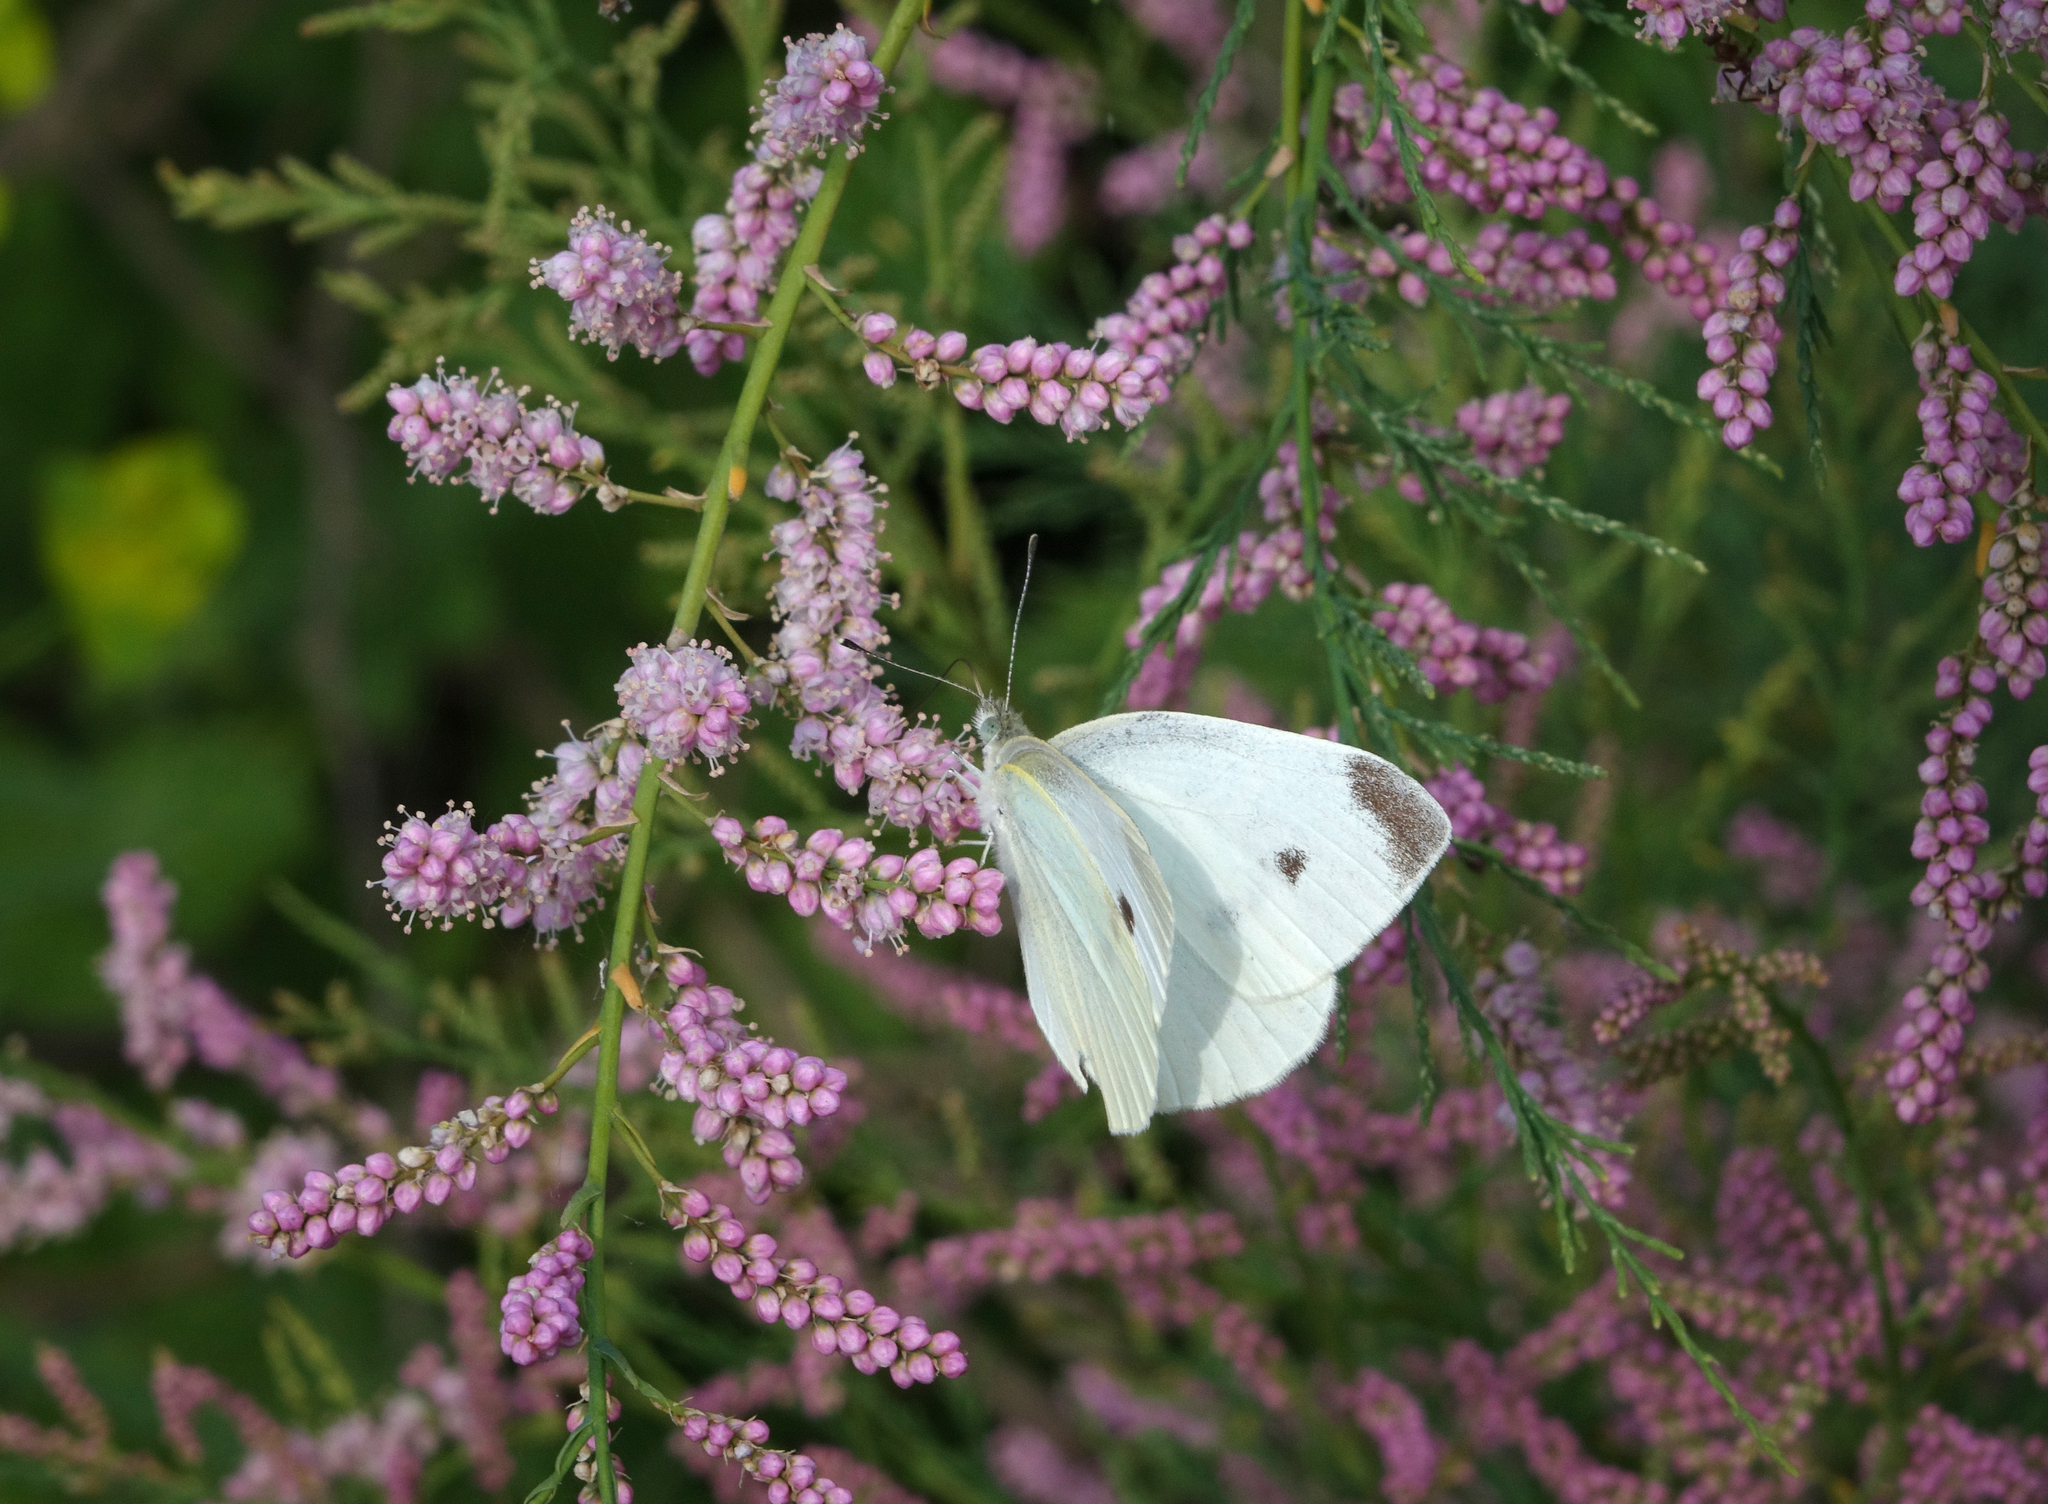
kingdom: Animalia
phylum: Arthropoda
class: Insecta
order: Lepidoptera
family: Pieridae
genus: Pieris
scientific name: Pieris rapae
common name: Small white
